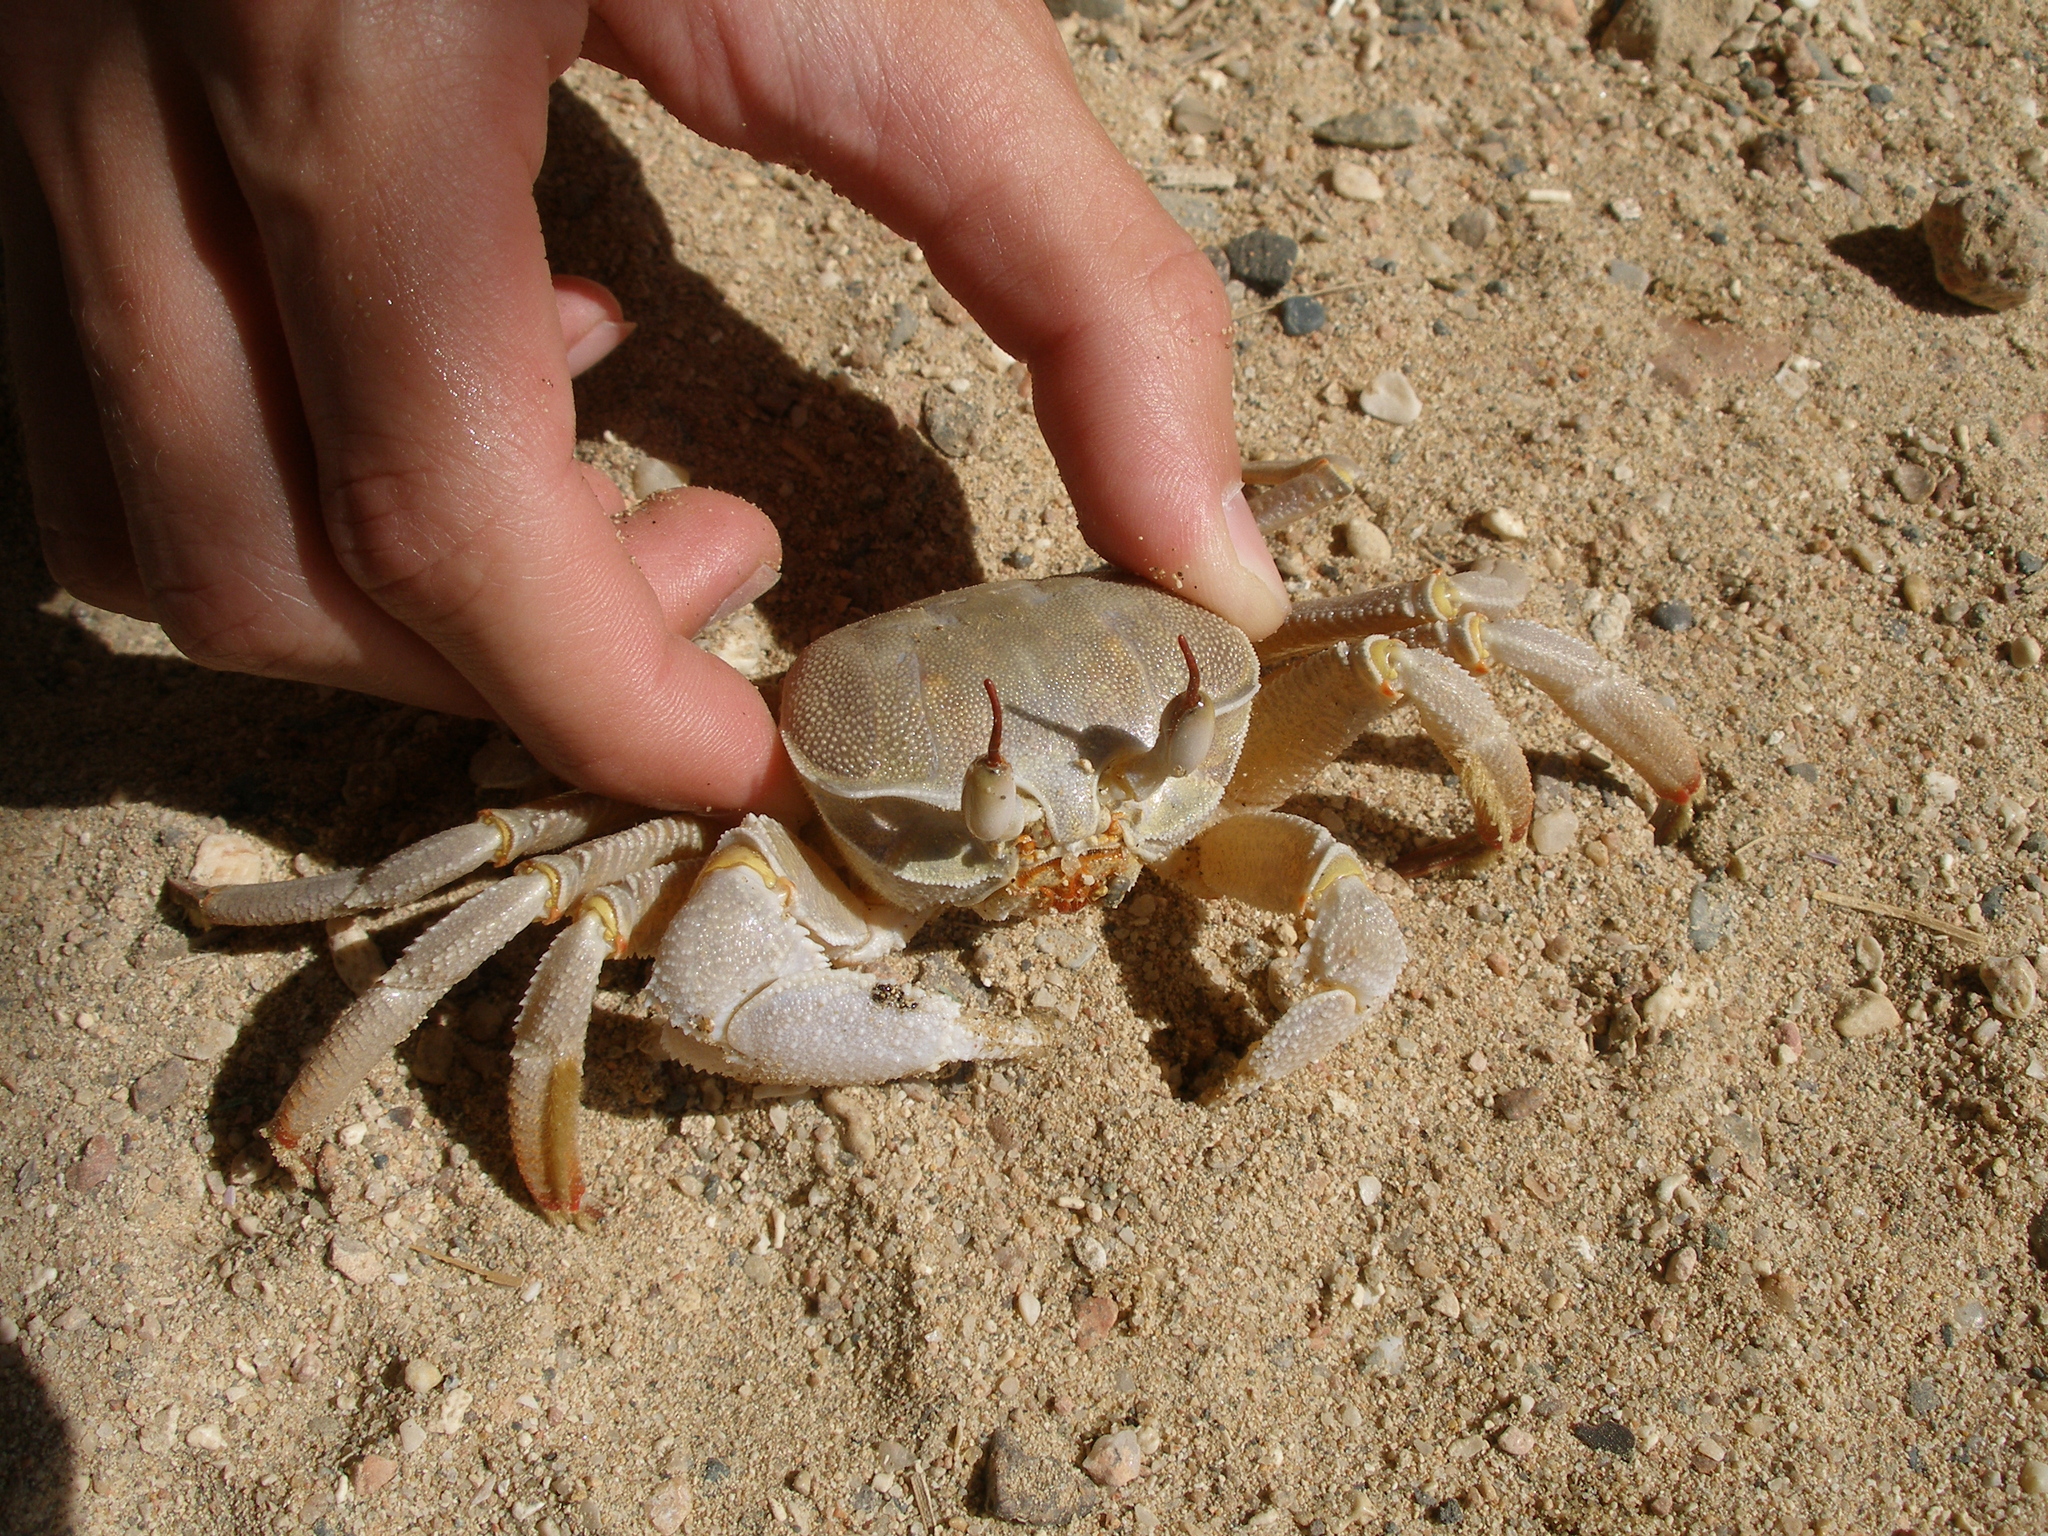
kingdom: Animalia
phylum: Arthropoda
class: Malacostraca
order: Decapoda
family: Ocypodidae
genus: Ocypode
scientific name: Ocypode saratan
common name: Red sea ghost crab
